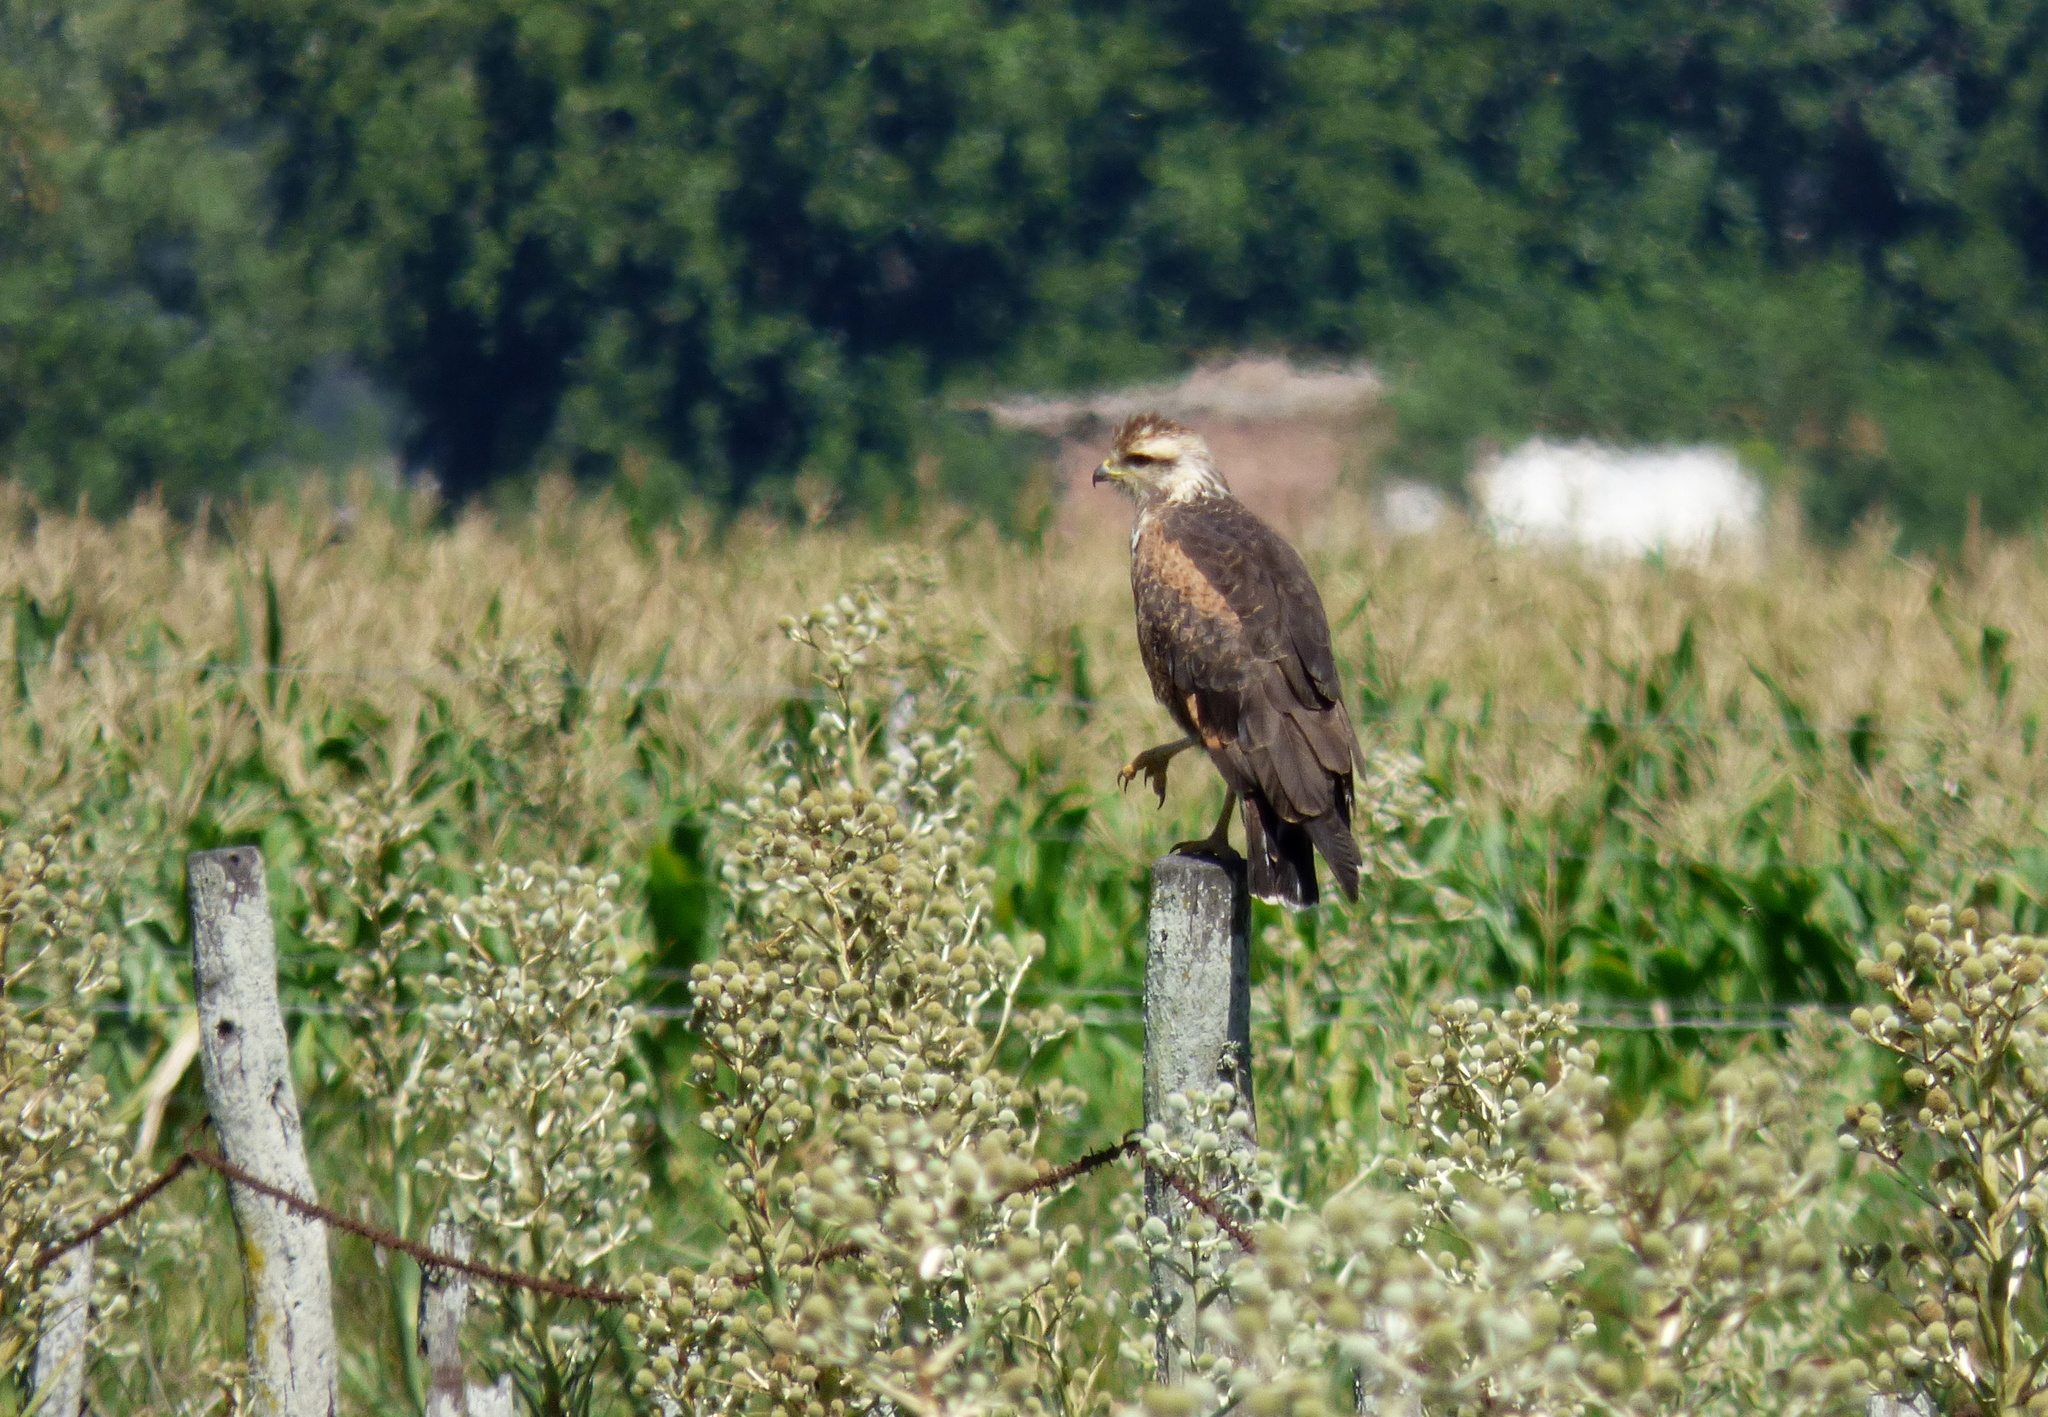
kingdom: Animalia
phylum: Chordata
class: Aves
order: Accipitriformes
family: Accipitridae
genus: Buteogallus
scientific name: Buteogallus meridionalis
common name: Savanna hawk
